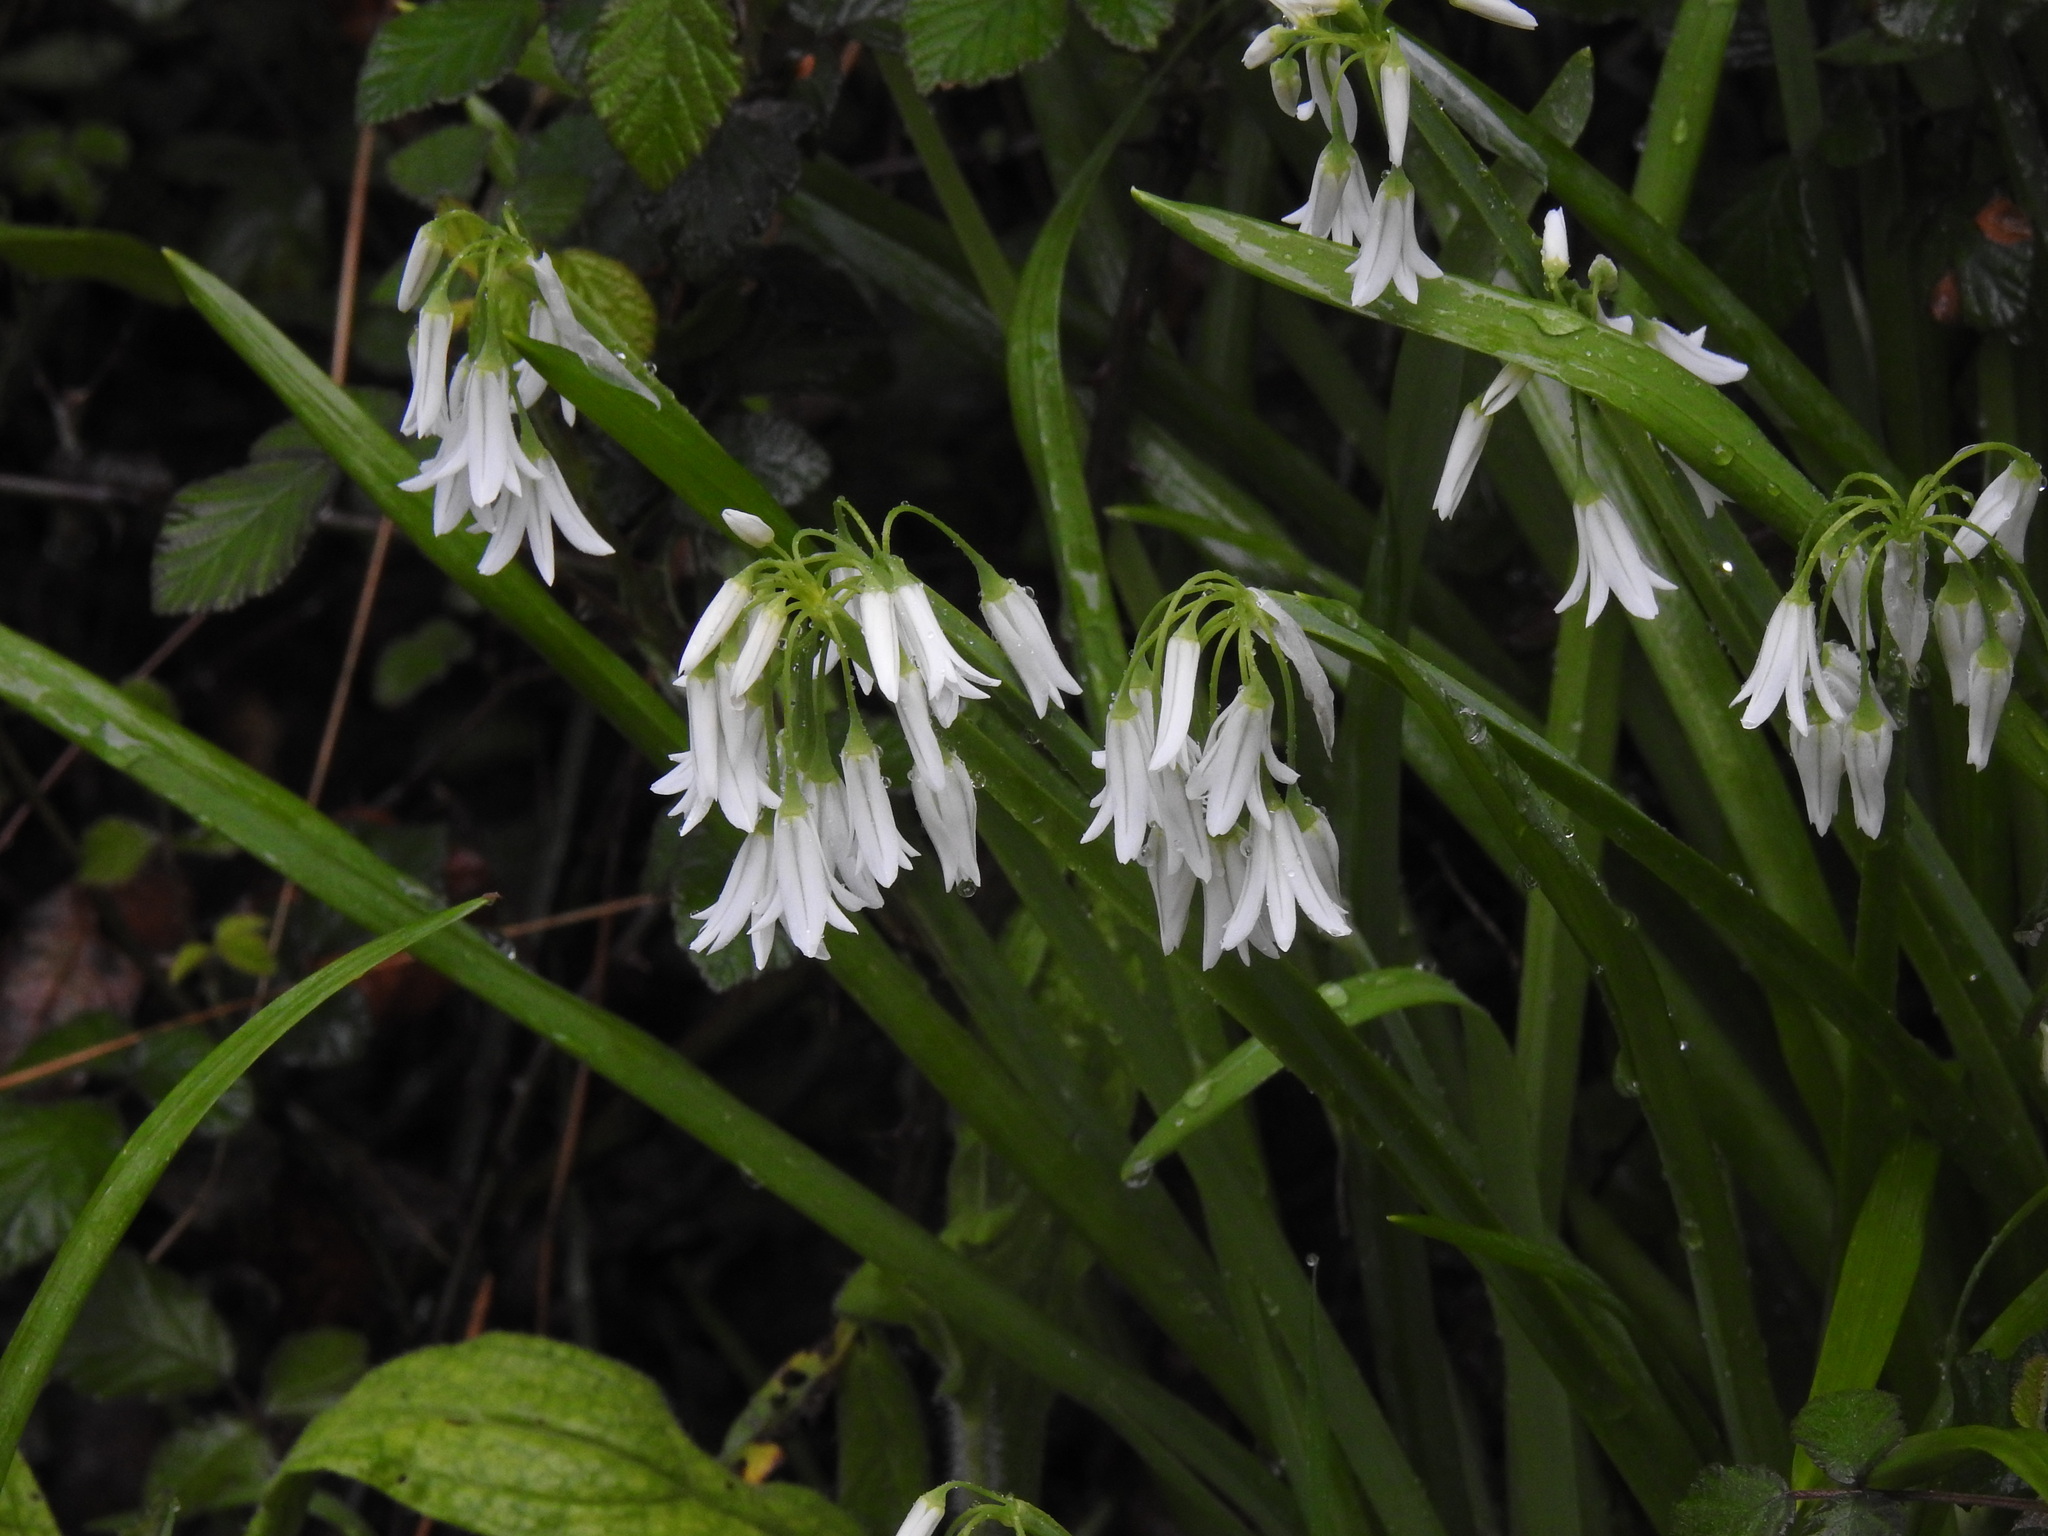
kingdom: Plantae
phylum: Tracheophyta
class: Liliopsida
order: Asparagales
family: Amaryllidaceae
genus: Allium
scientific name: Allium triquetrum
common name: Three-cornered garlic
